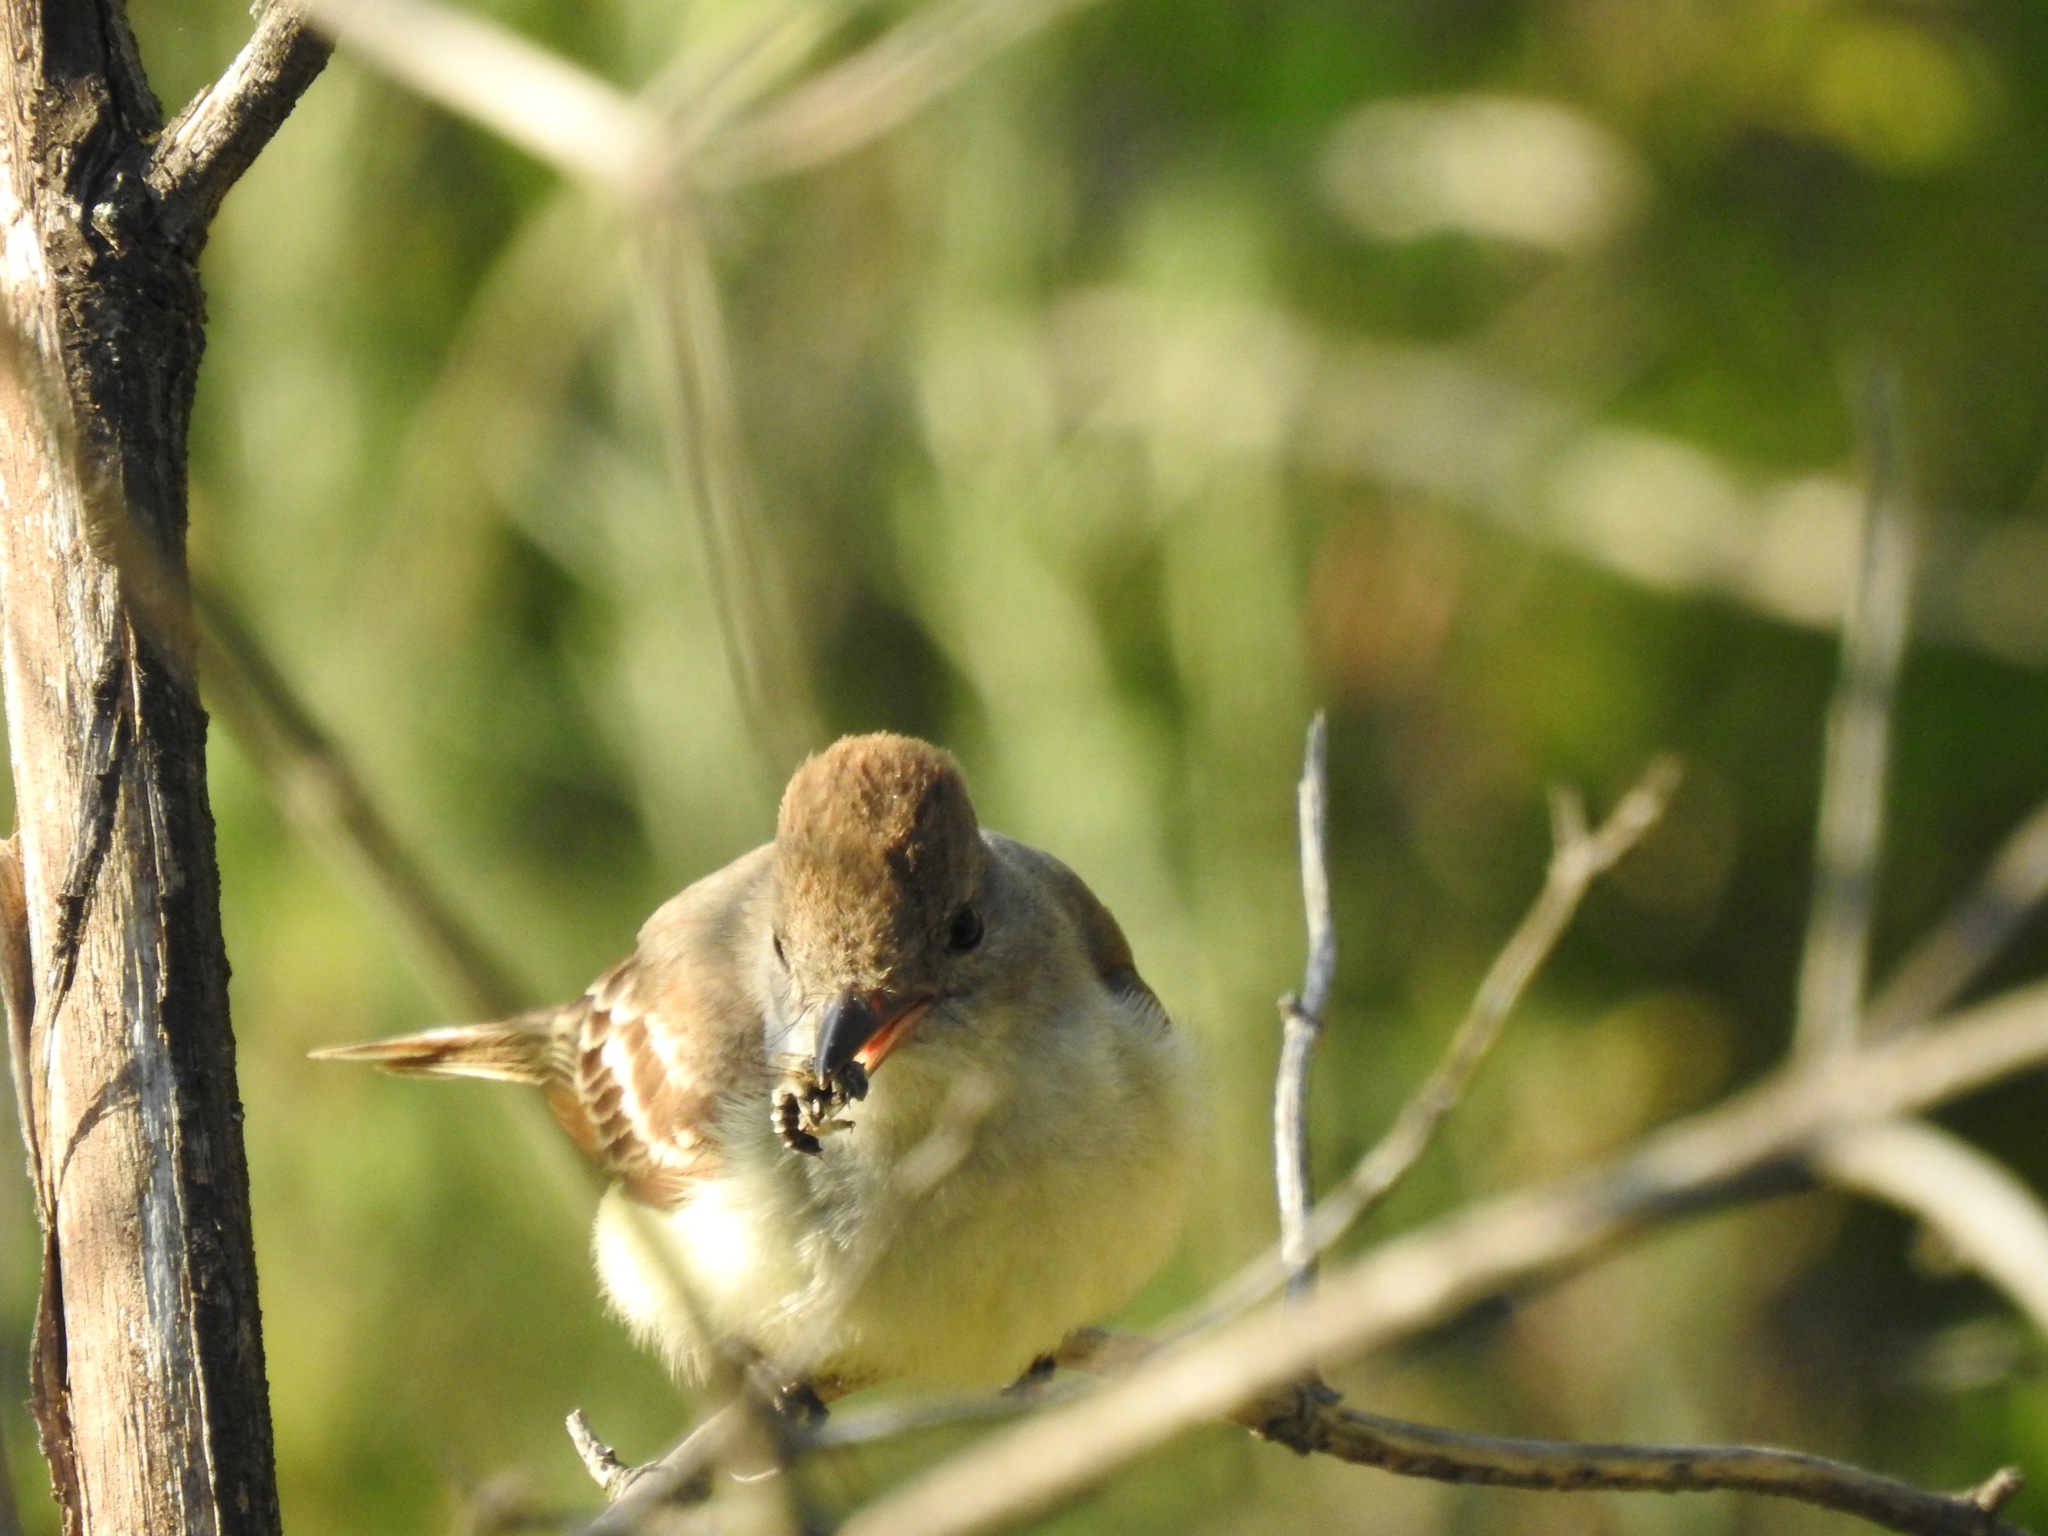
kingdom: Animalia
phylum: Chordata
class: Aves
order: Passeriformes
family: Tyrannidae
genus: Myiarchus
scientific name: Myiarchus cinerascens
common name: Ash-throated flycatcher
